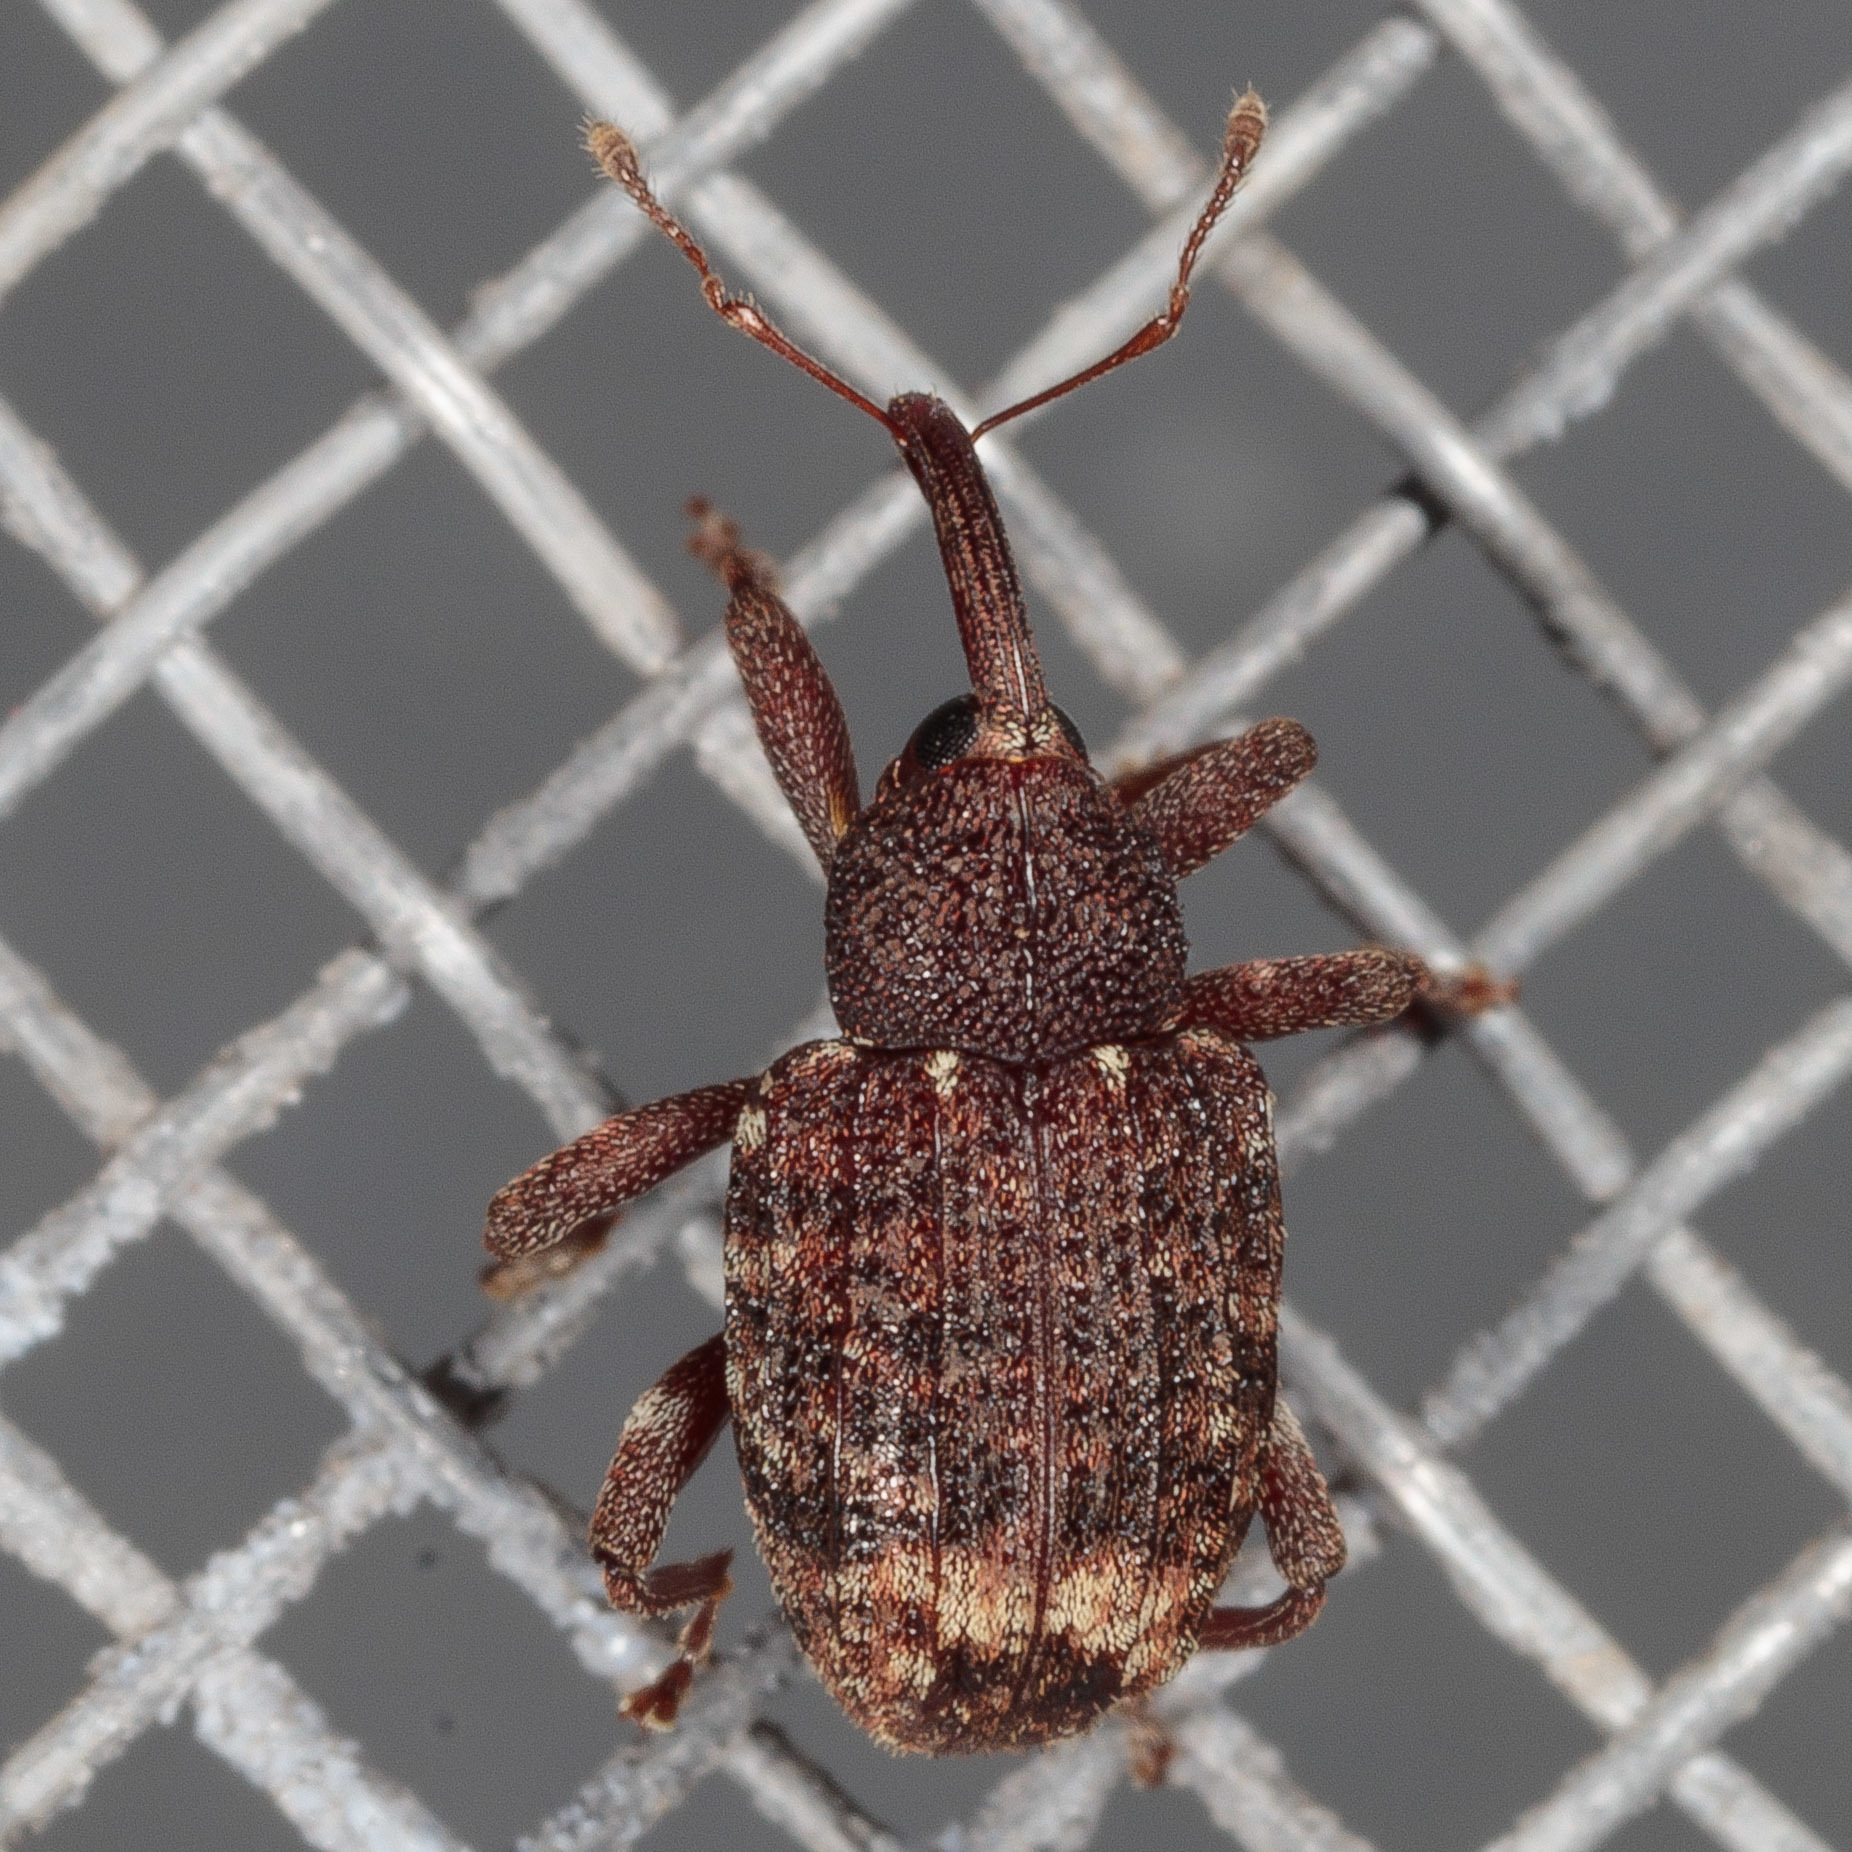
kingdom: Animalia
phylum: Arthropoda
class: Insecta
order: Coleoptera
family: Curculionidae
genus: Conotrachelus
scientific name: Conotrachelus posticatus
